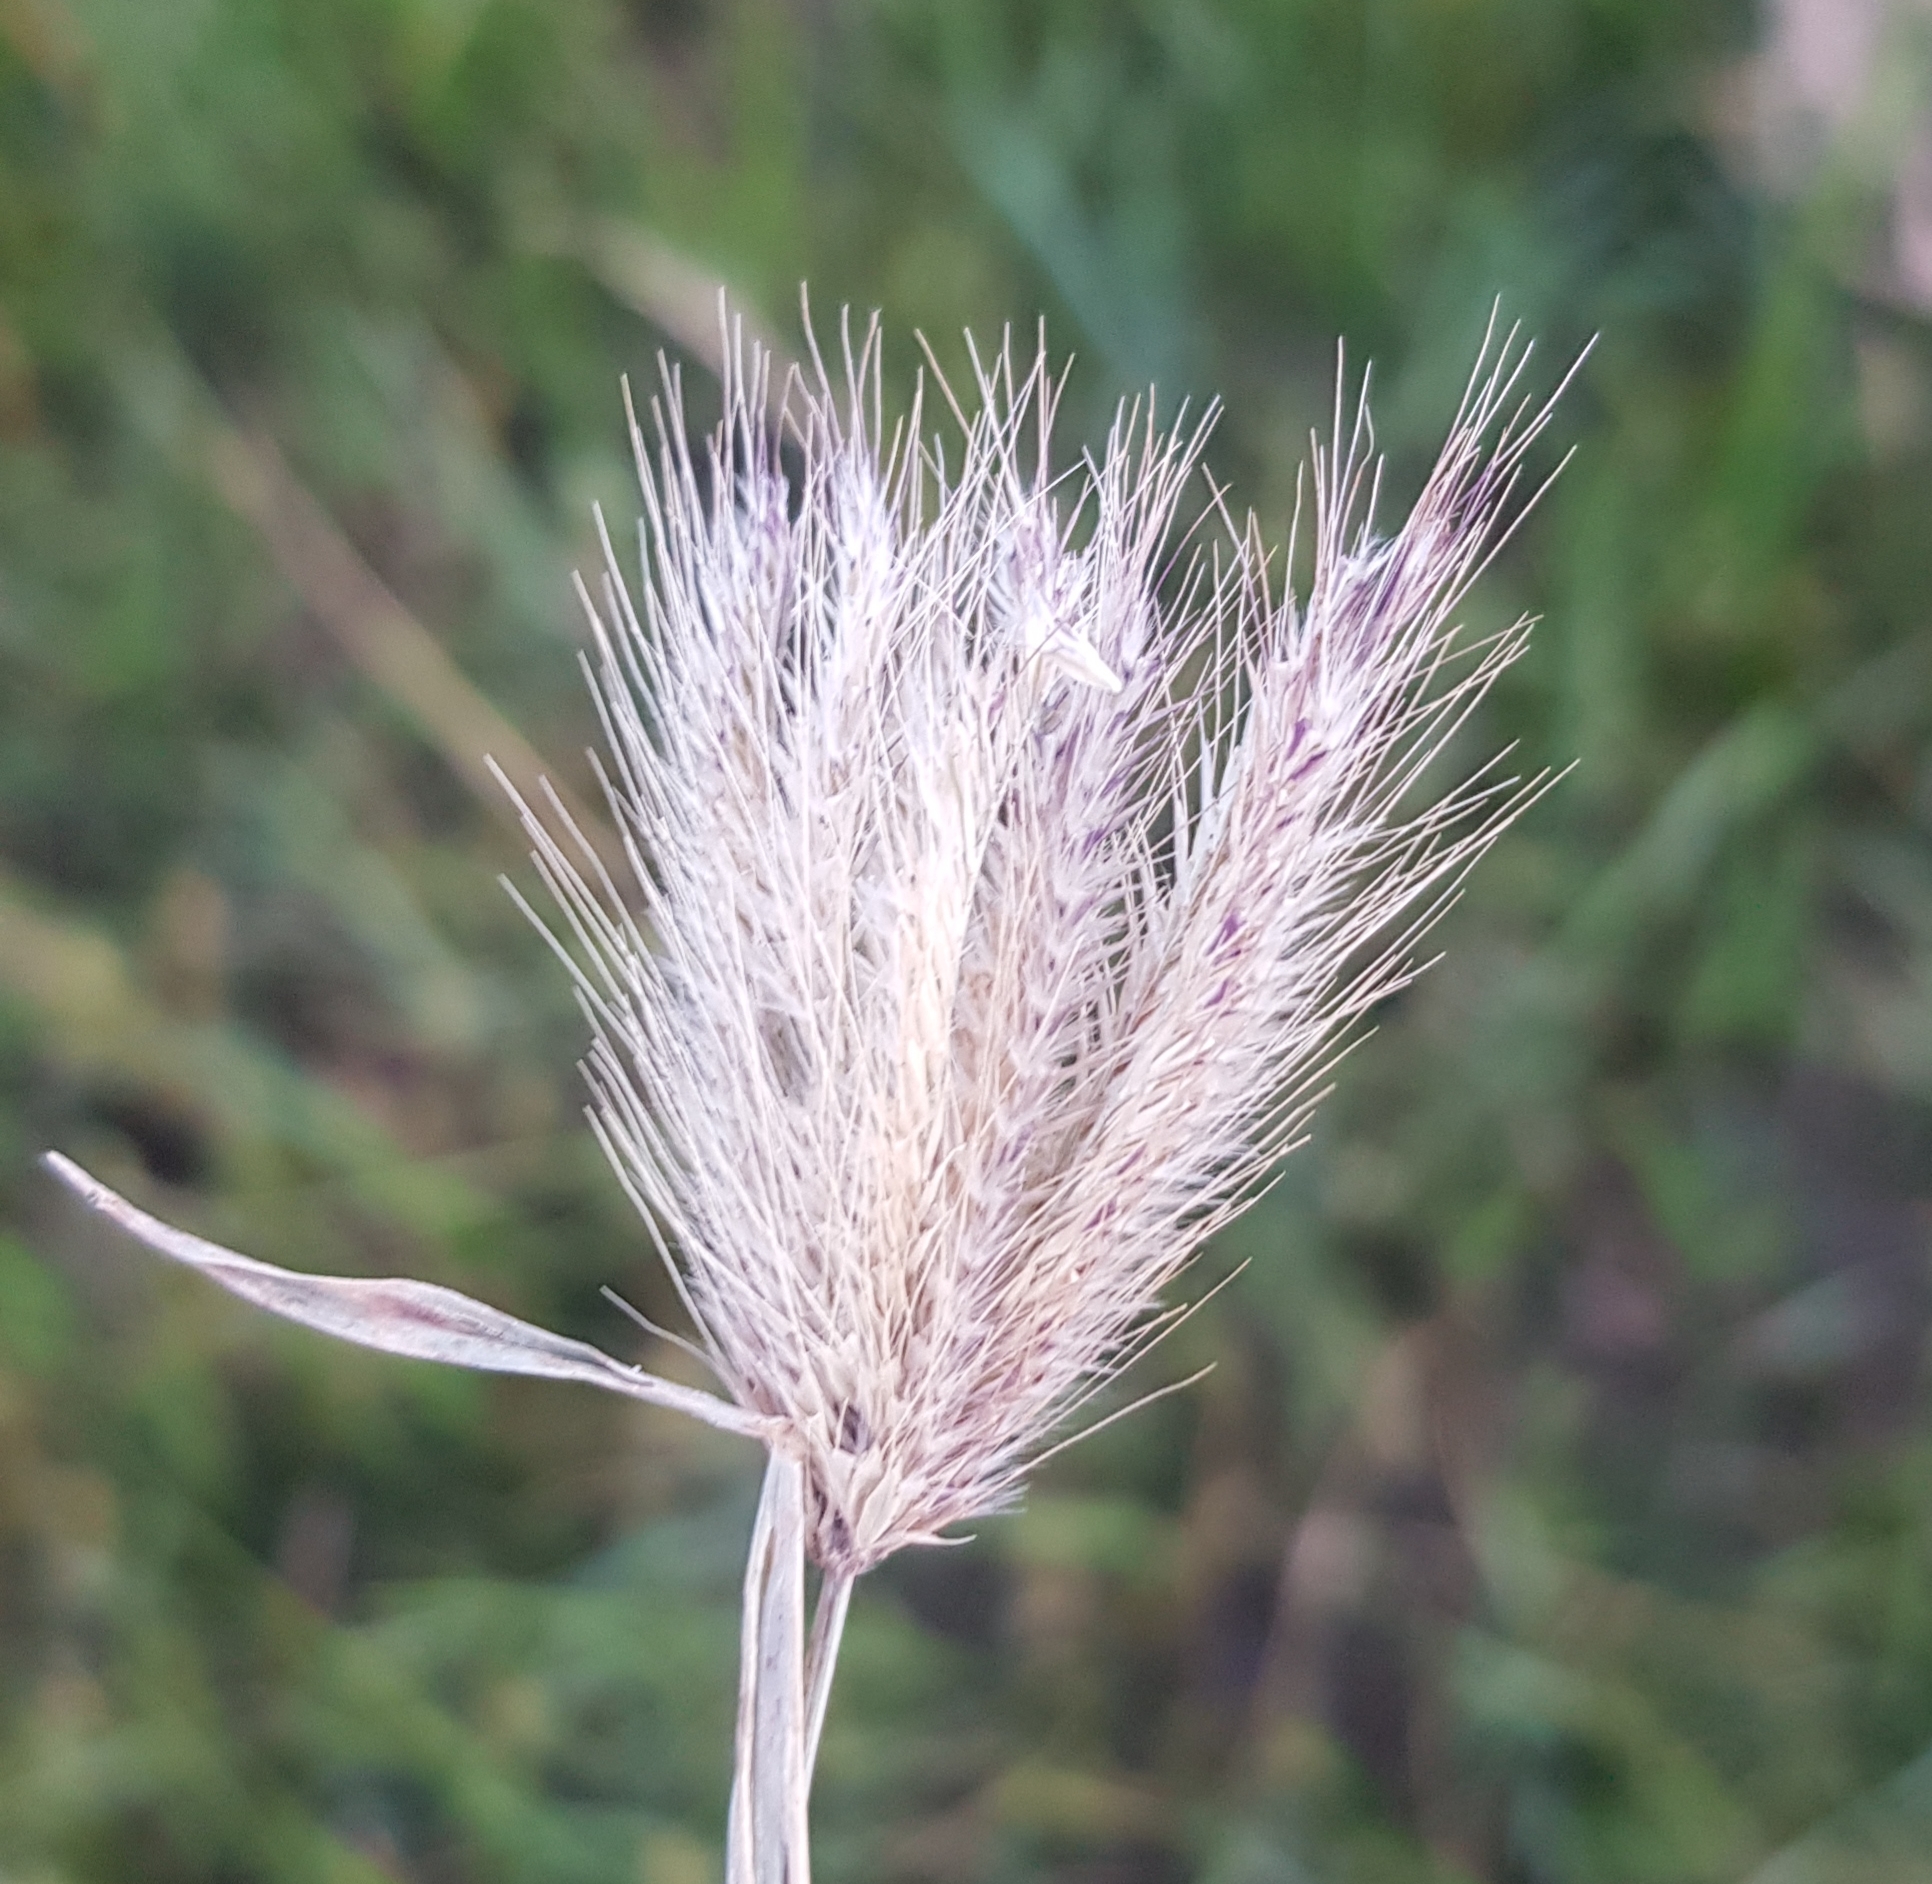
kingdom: Plantae
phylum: Tracheophyta
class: Liliopsida
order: Poales
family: Poaceae
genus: Chloris
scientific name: Chloris virgata
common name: Feathery rhodes-grass
